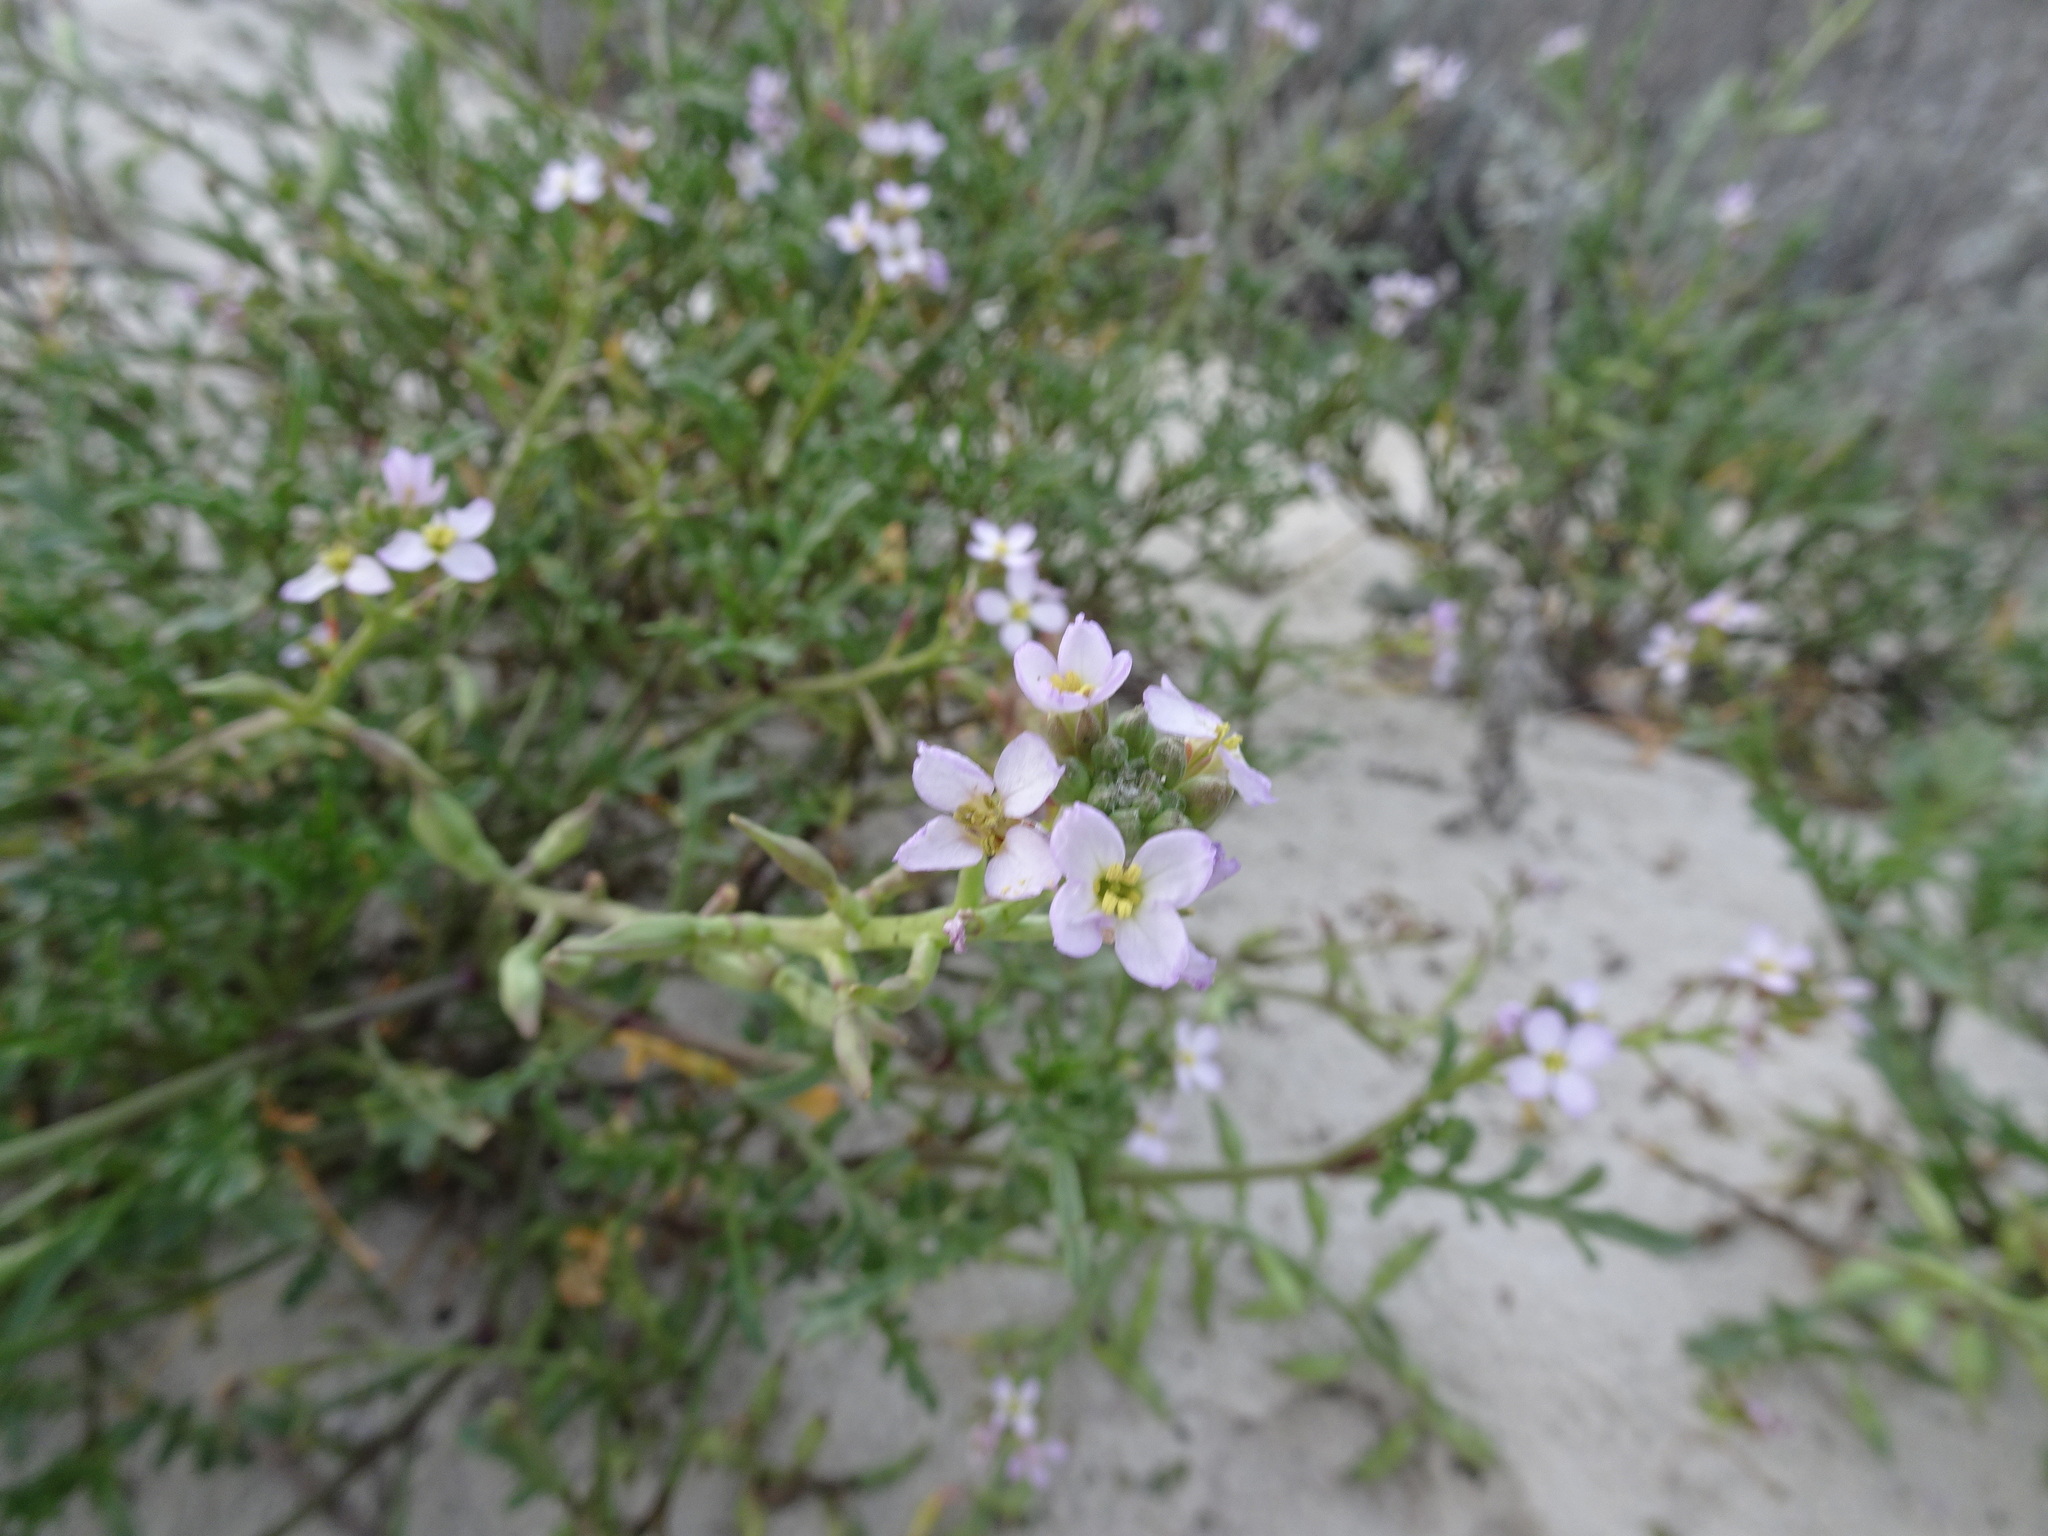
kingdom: Plantae
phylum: Tracheophyta
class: Magnoliopsida
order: Brassicales
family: Brassicaceae
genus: Cakile
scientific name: Cakile maritima
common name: Sea rocket
